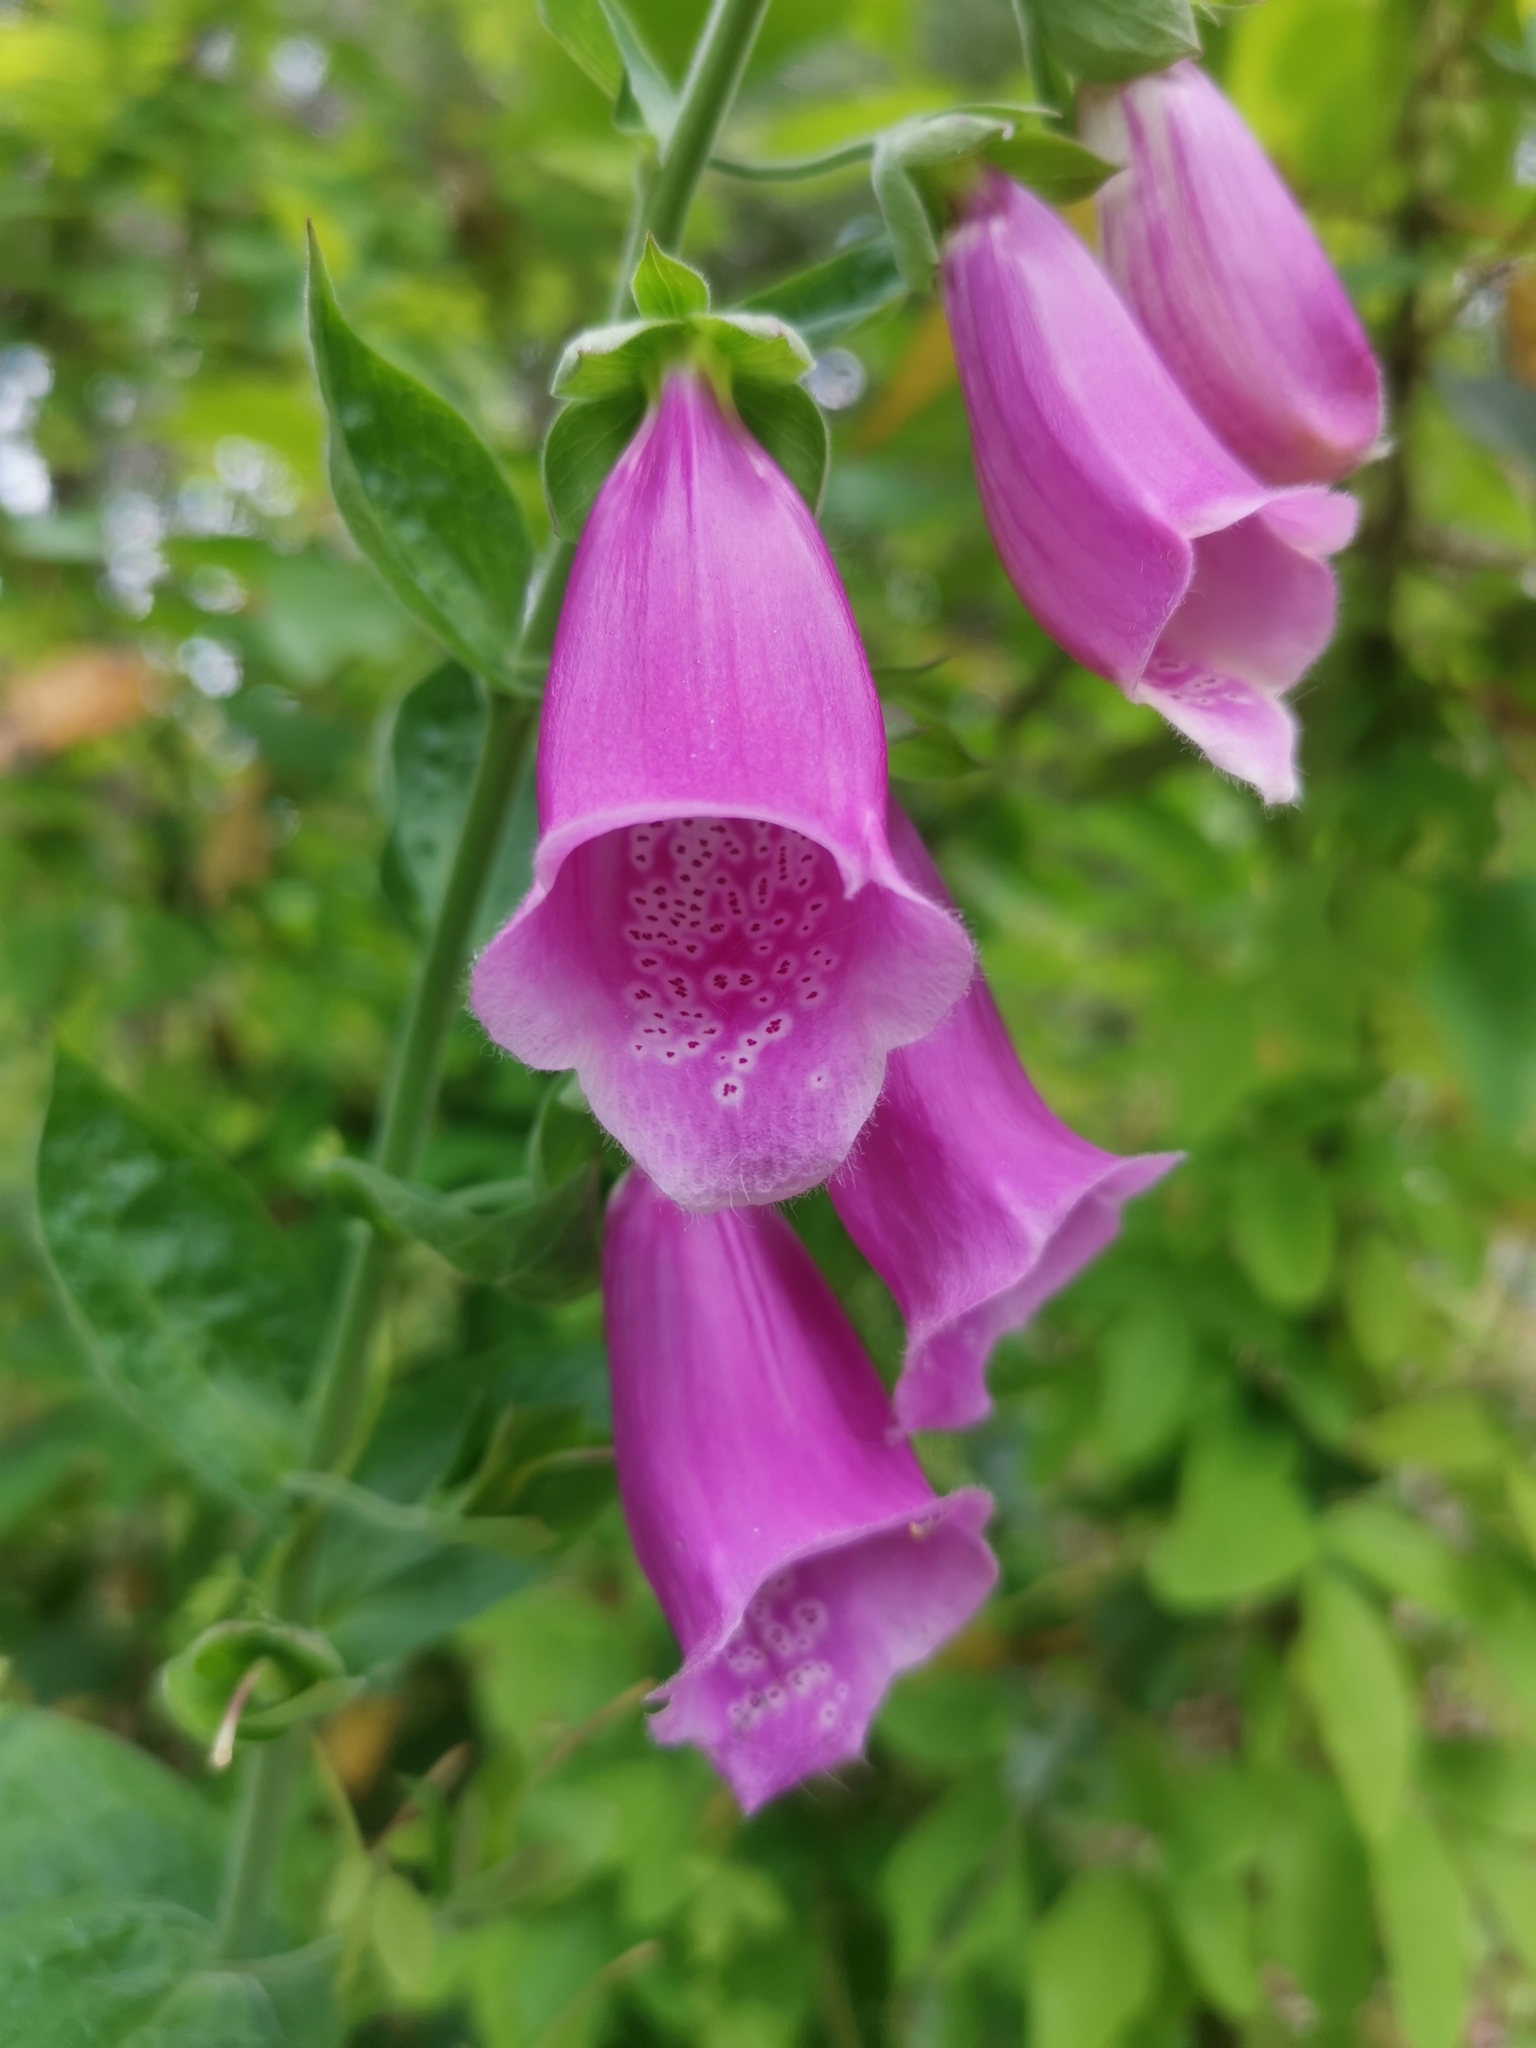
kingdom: Plantae
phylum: Tracheophyta
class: Magnoliopsida
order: Lamiales
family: Plantaginaceae
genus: Digitalis
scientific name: Digitalis purpurea
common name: Foxglove
